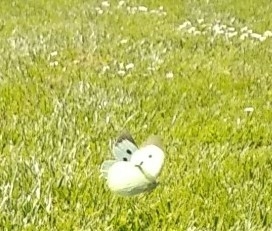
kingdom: Animalia
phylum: Arthropoda
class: Insecta
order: Lepidoptera
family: Pieridae
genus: Pieris
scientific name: Pieris brassicae
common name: Large white
